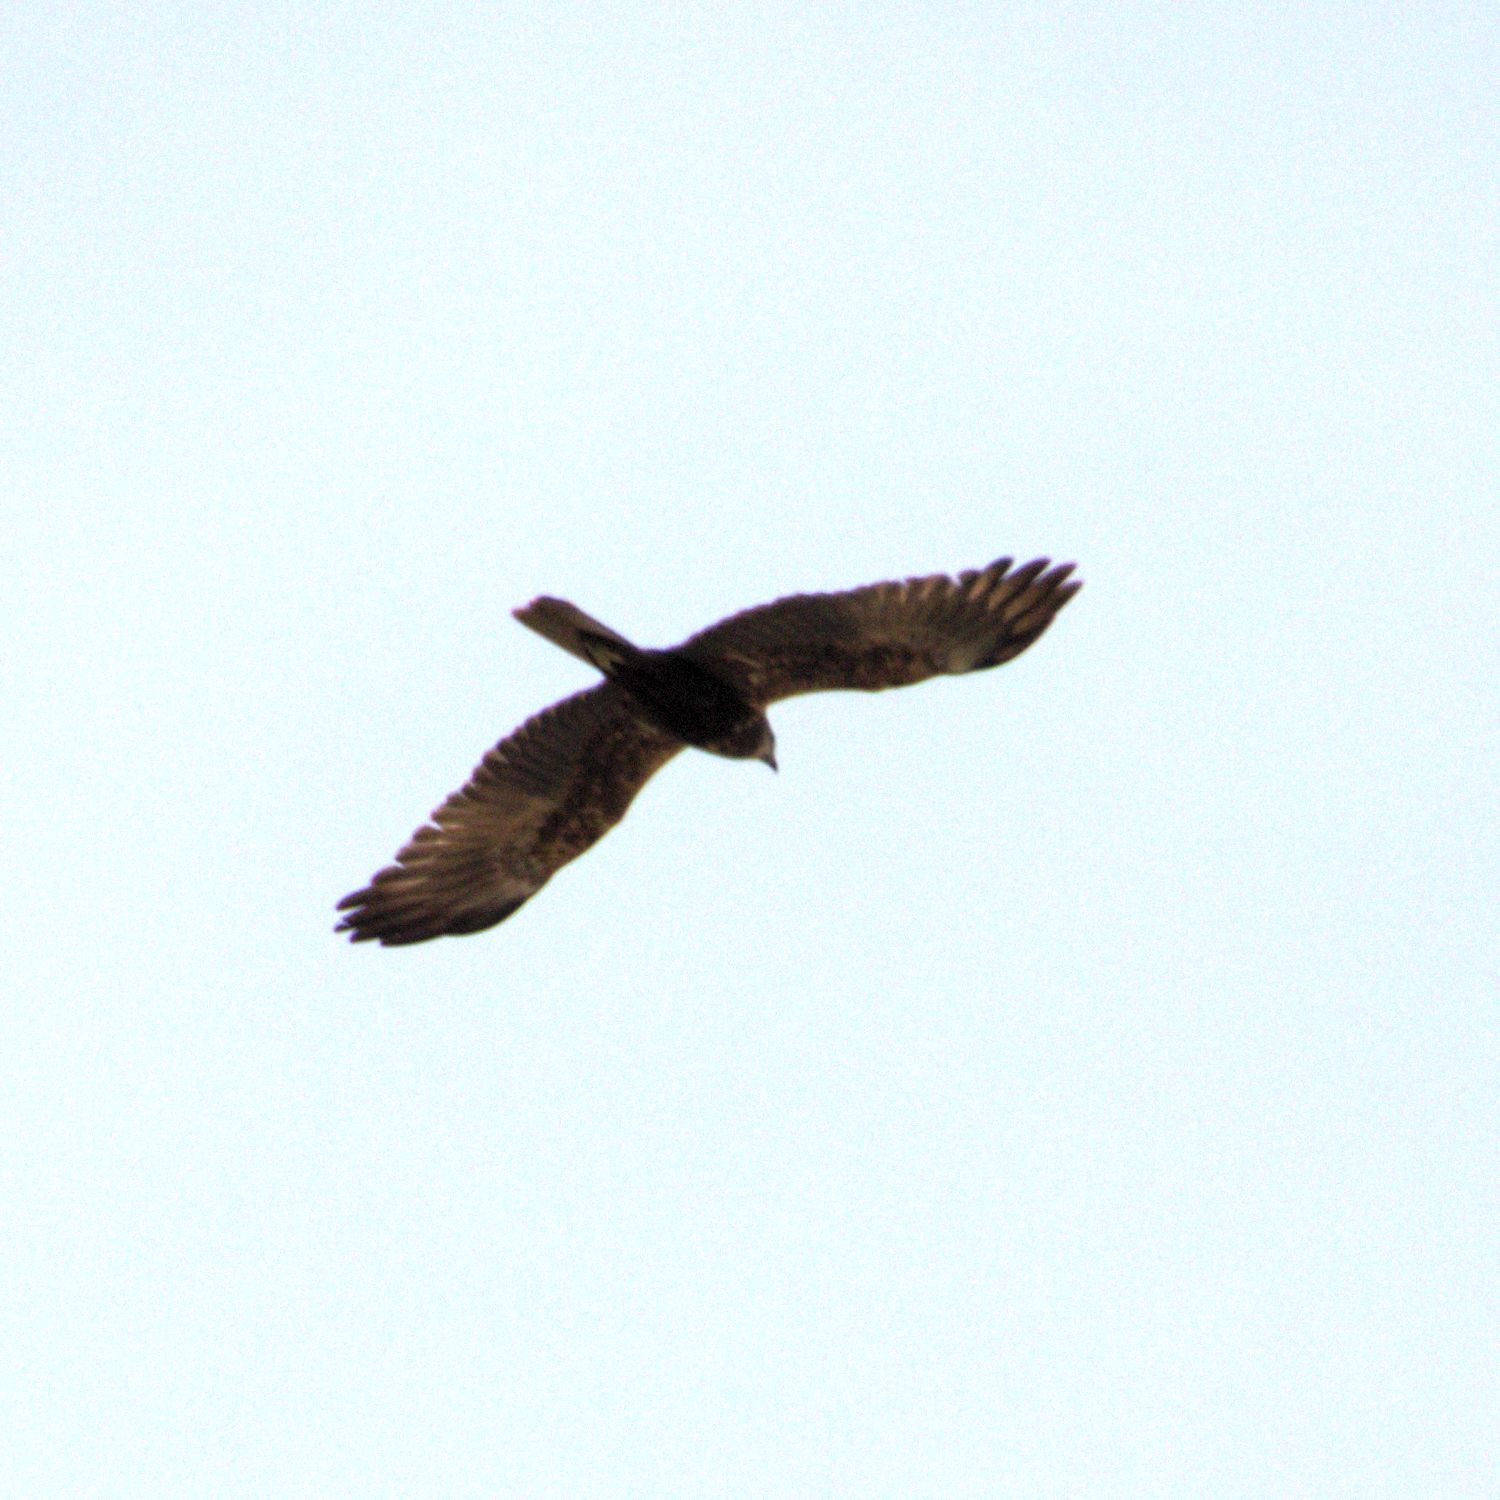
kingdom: Animalia
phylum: Chordata
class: Aves
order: Accipitriformes
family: Accipitridae
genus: Circus
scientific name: Circus aeruginosus
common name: Western marsh harrier
